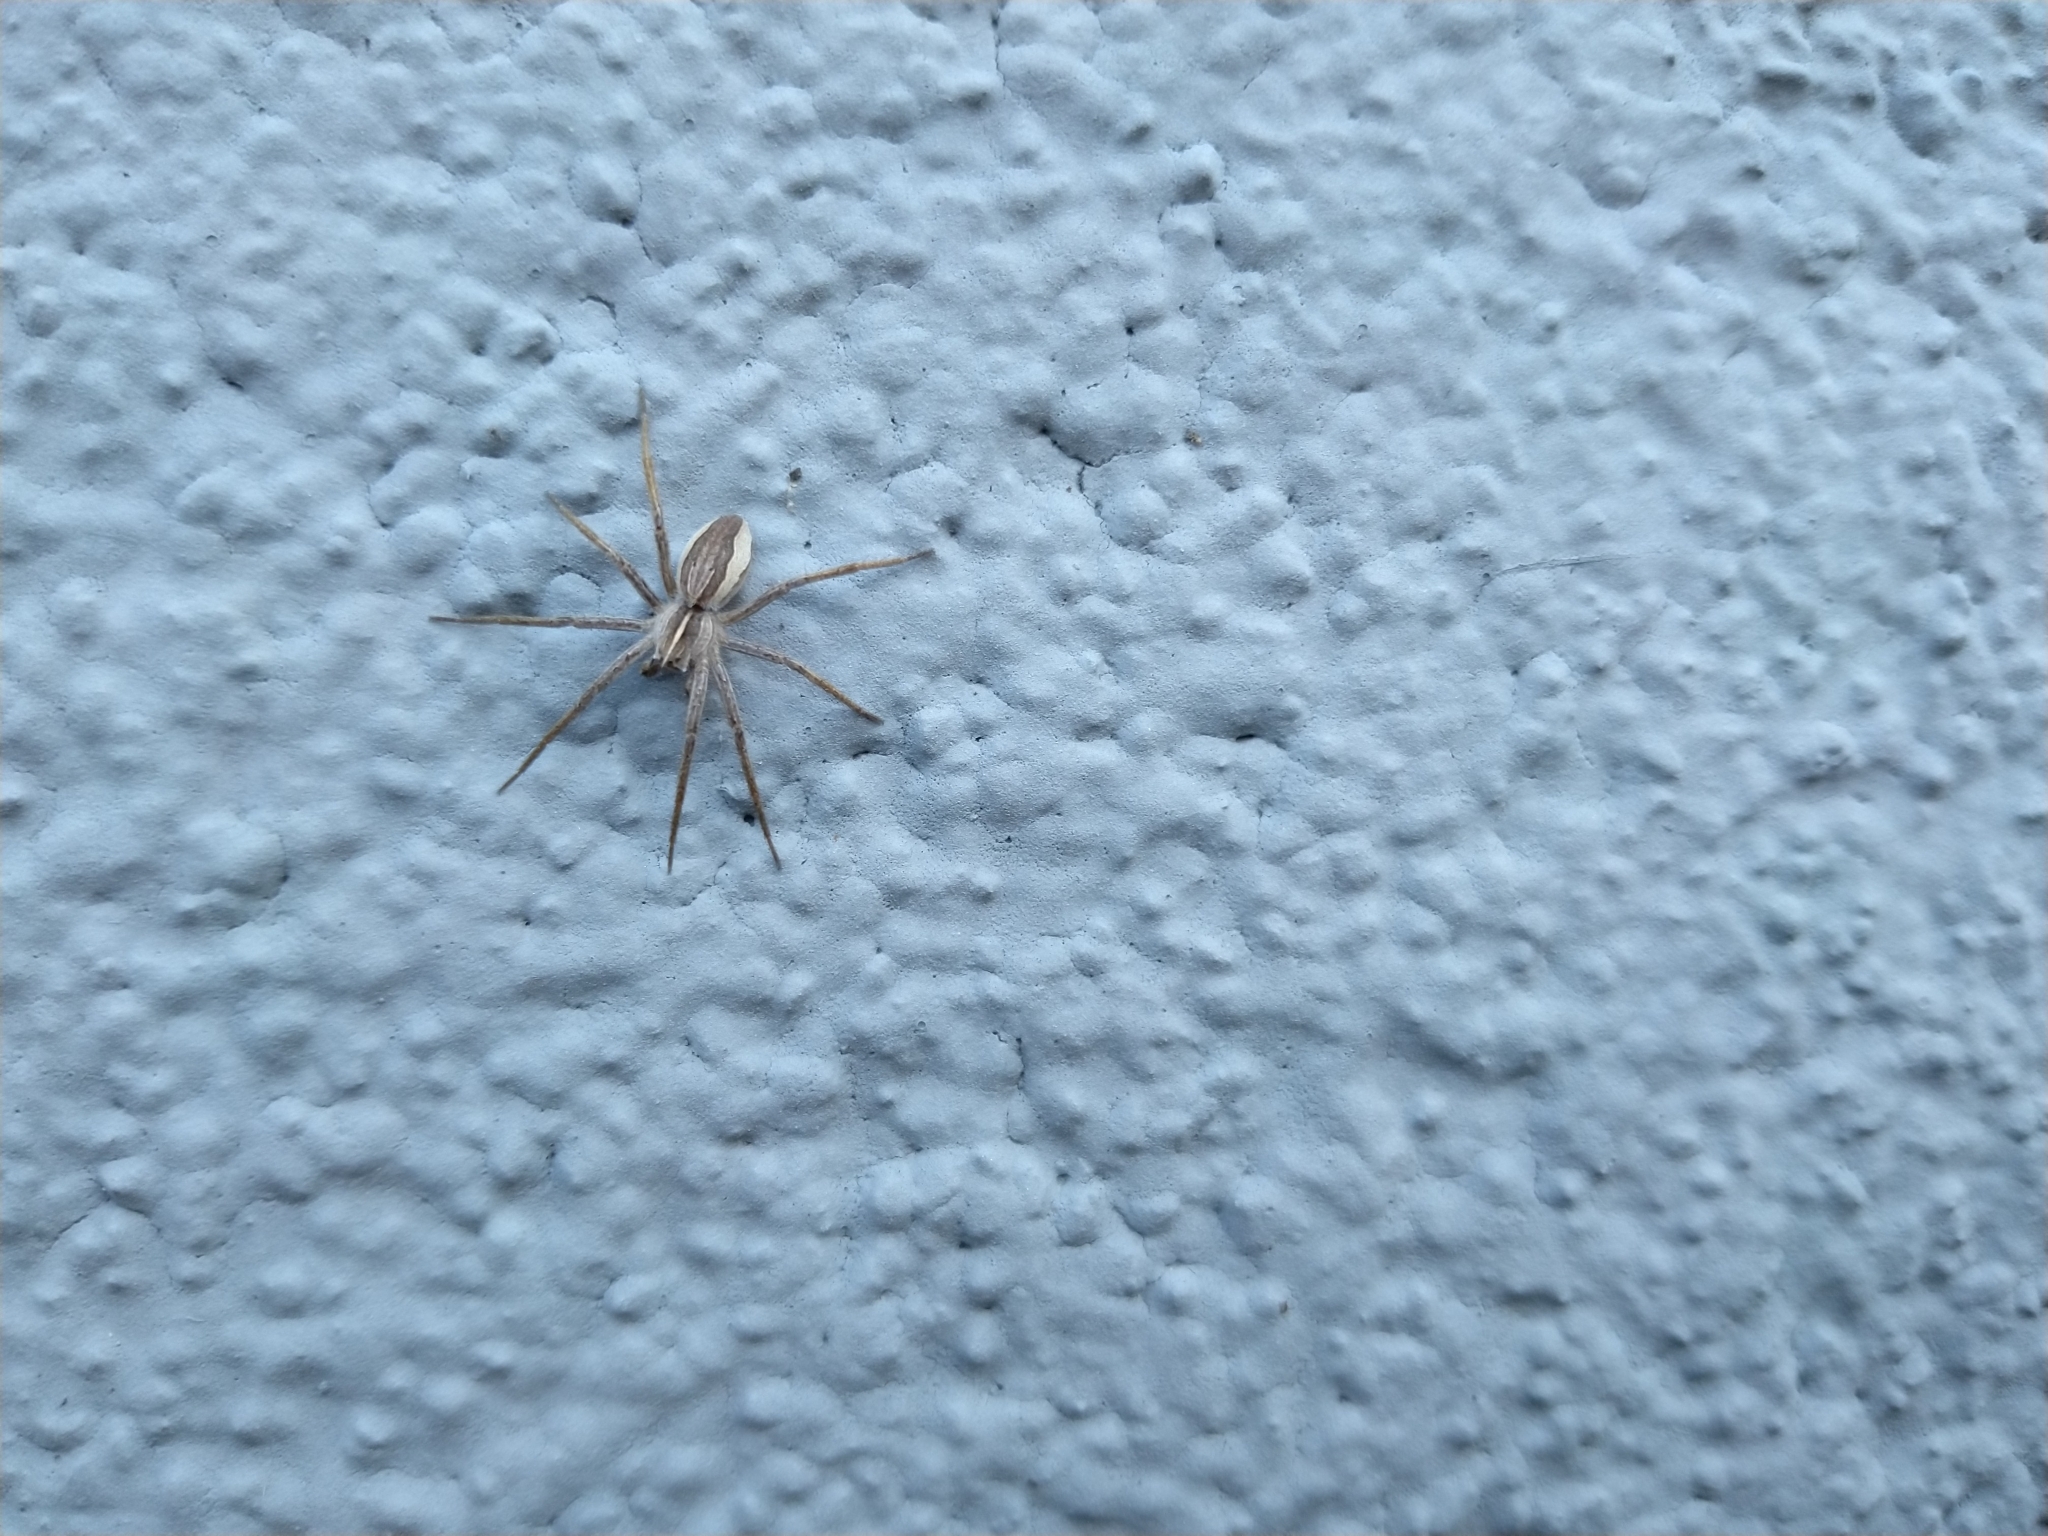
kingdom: Animalia
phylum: Arthropoda
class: Arachnida
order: Araneae
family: Pisauridae
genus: Pisaura
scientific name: Pisaura mirabilis
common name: Tent spider
